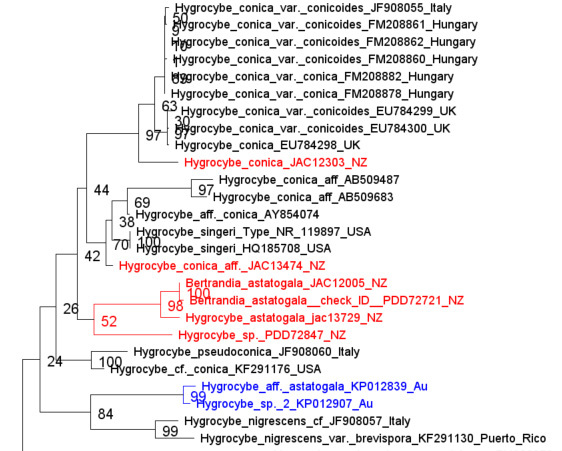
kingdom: Fungi
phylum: Basidiomycota
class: Agaricomycetes
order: Agaricales
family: Hygrophoraceae
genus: Hygrocybe
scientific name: Hygrocybe astatogala
